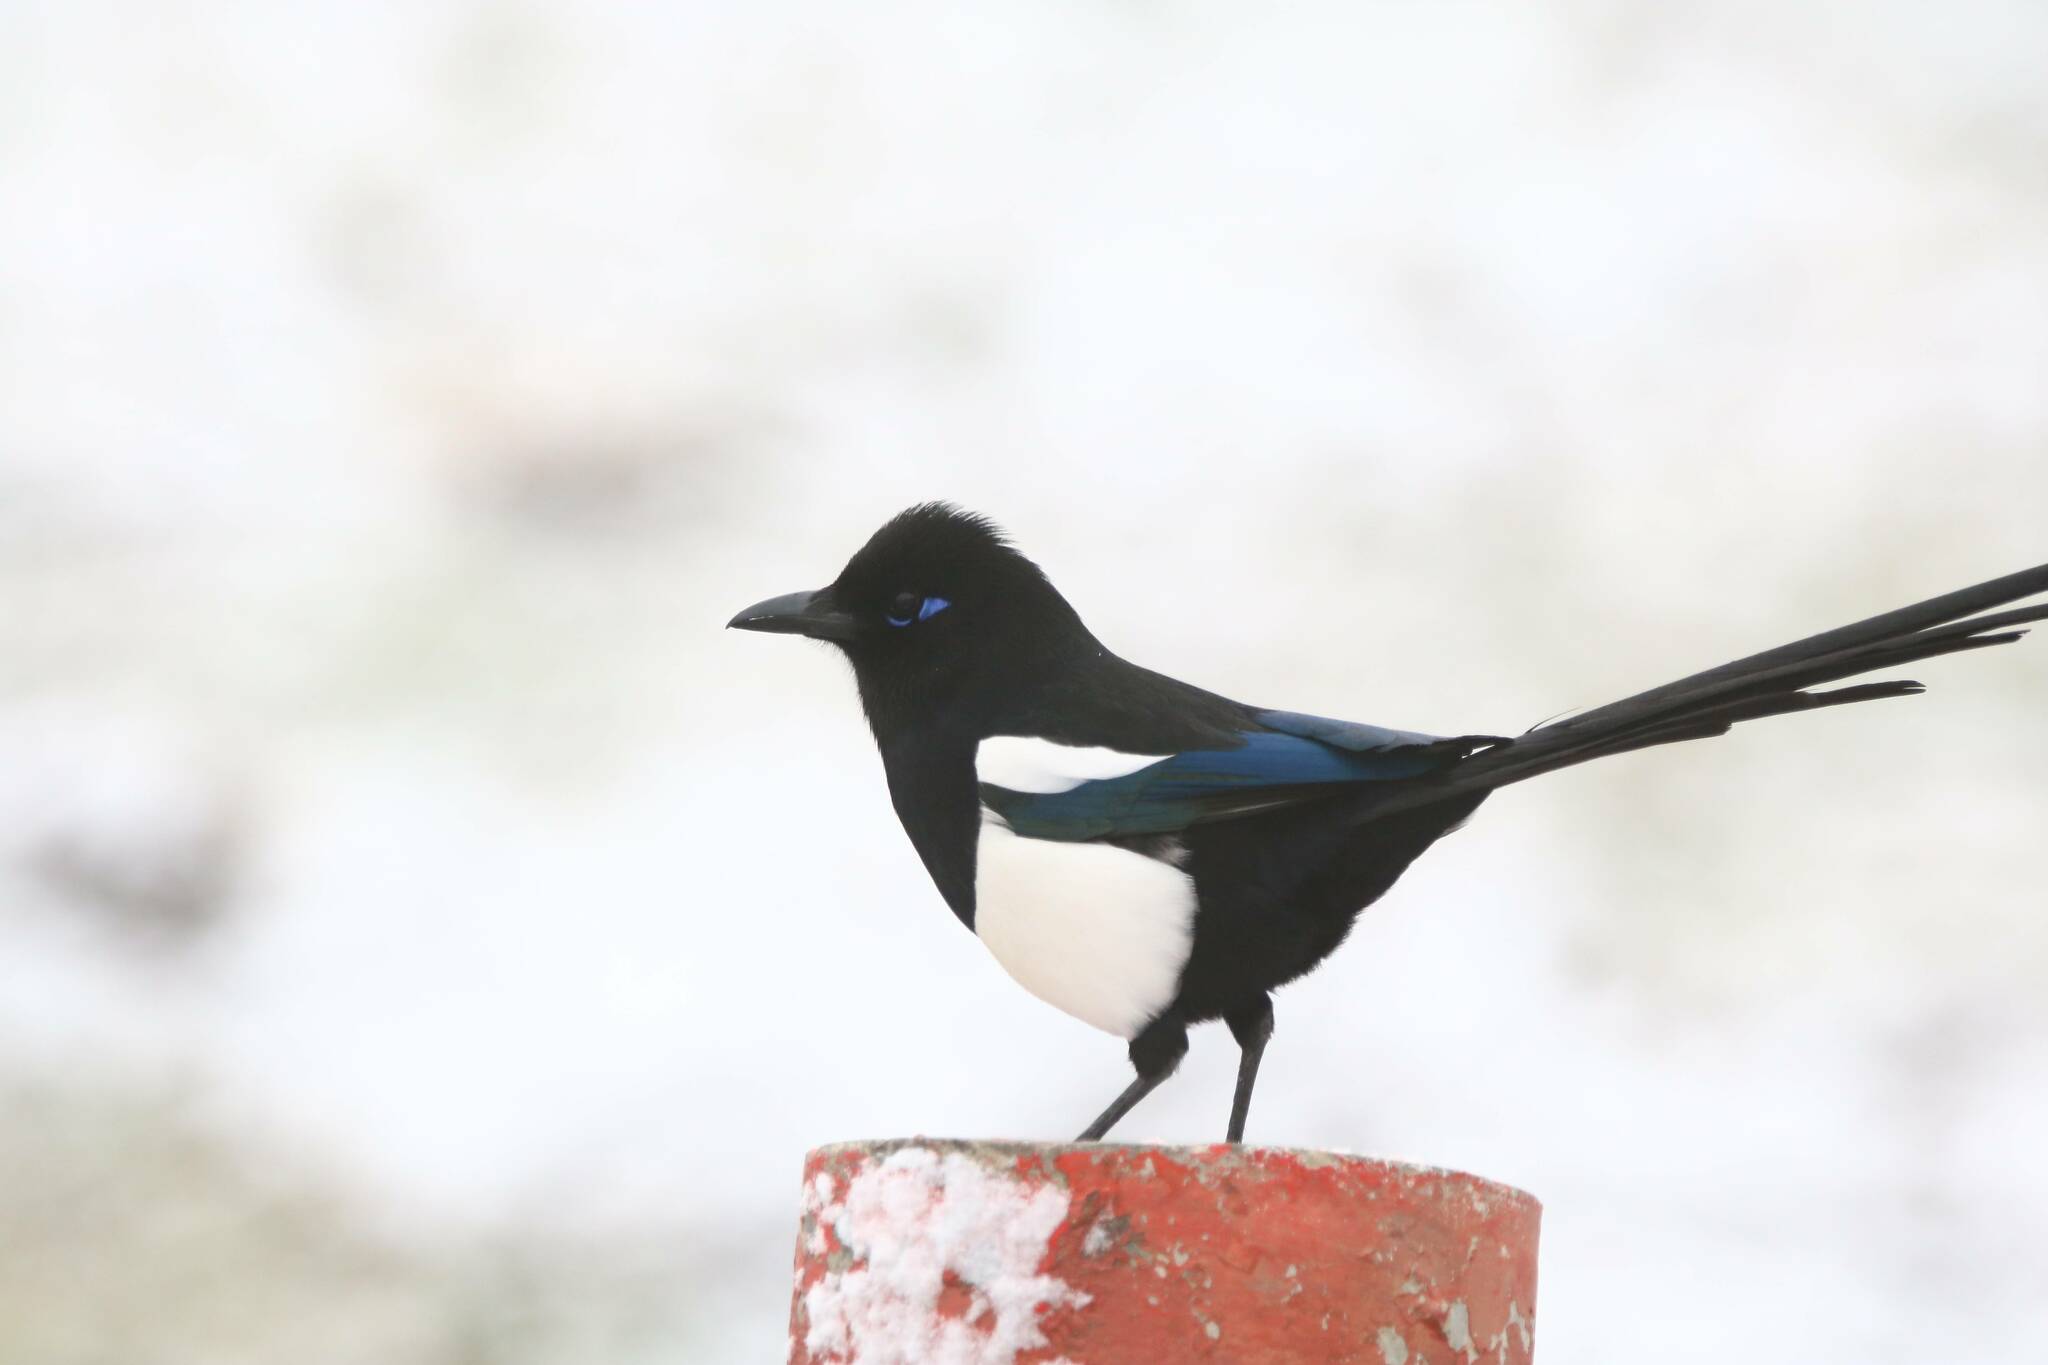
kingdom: Animalia
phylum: Chordata
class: Aves
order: Passeriformes
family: Corvidae
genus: Pica
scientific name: Pica mauritanica
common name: Maghreb magpie
